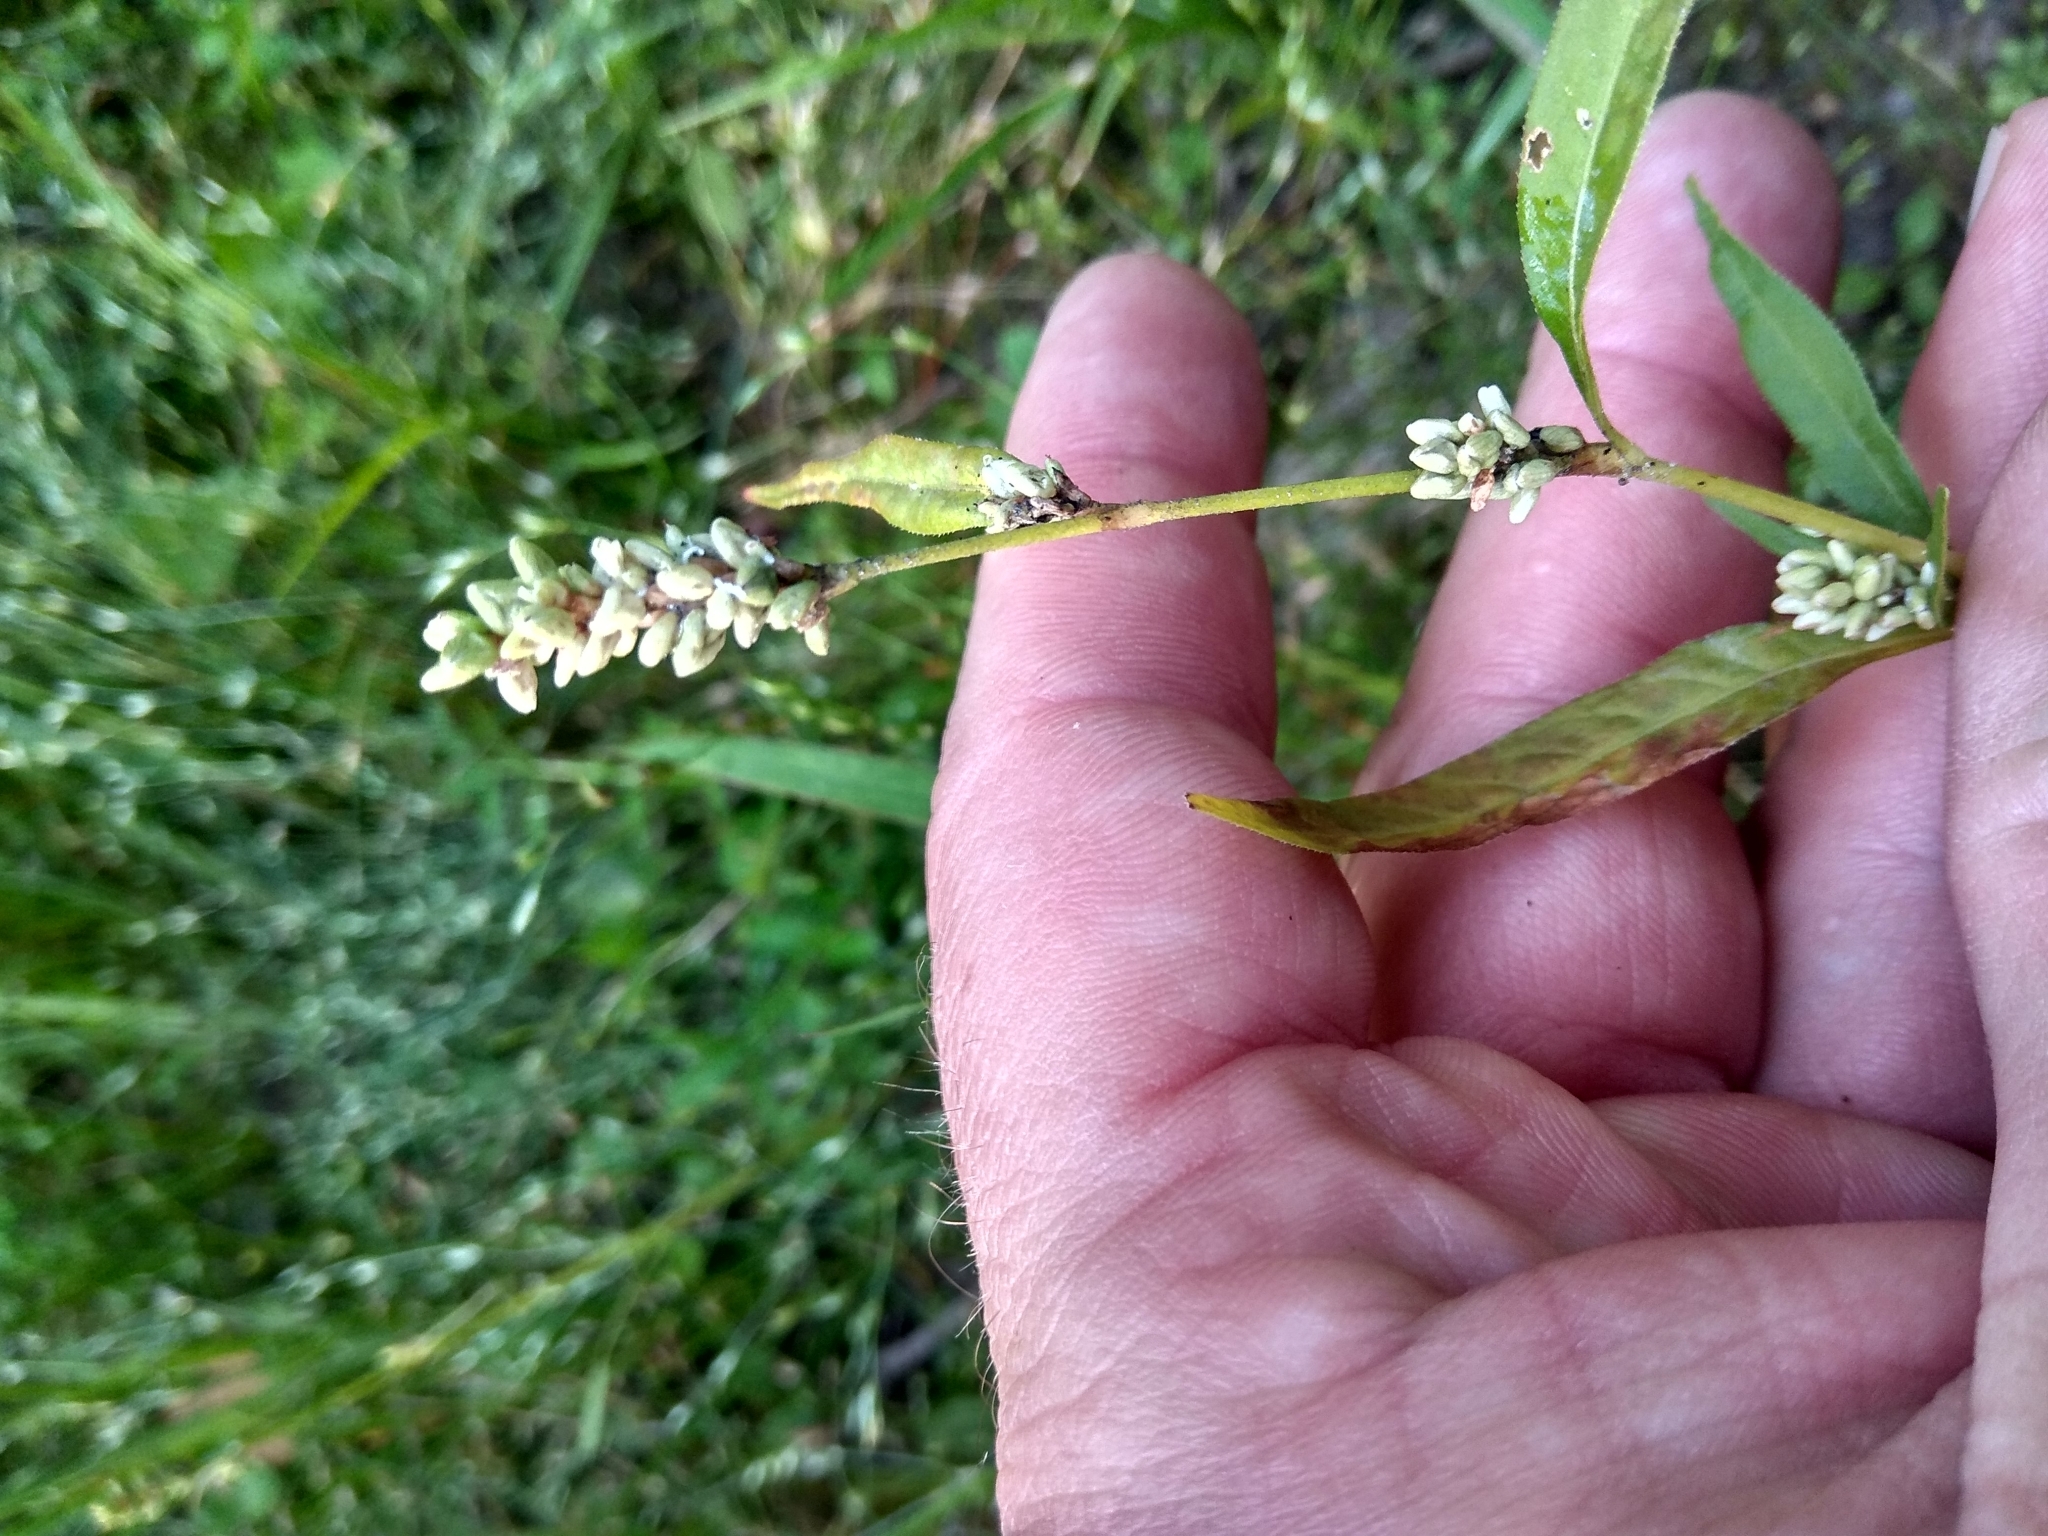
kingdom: Plantae
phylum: Tracheophyta
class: Magnoliopsida
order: Caryophyllales
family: Polygonaceae
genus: Persicaria
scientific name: Persicaria lapathifolia
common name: Curlytop knotweed
